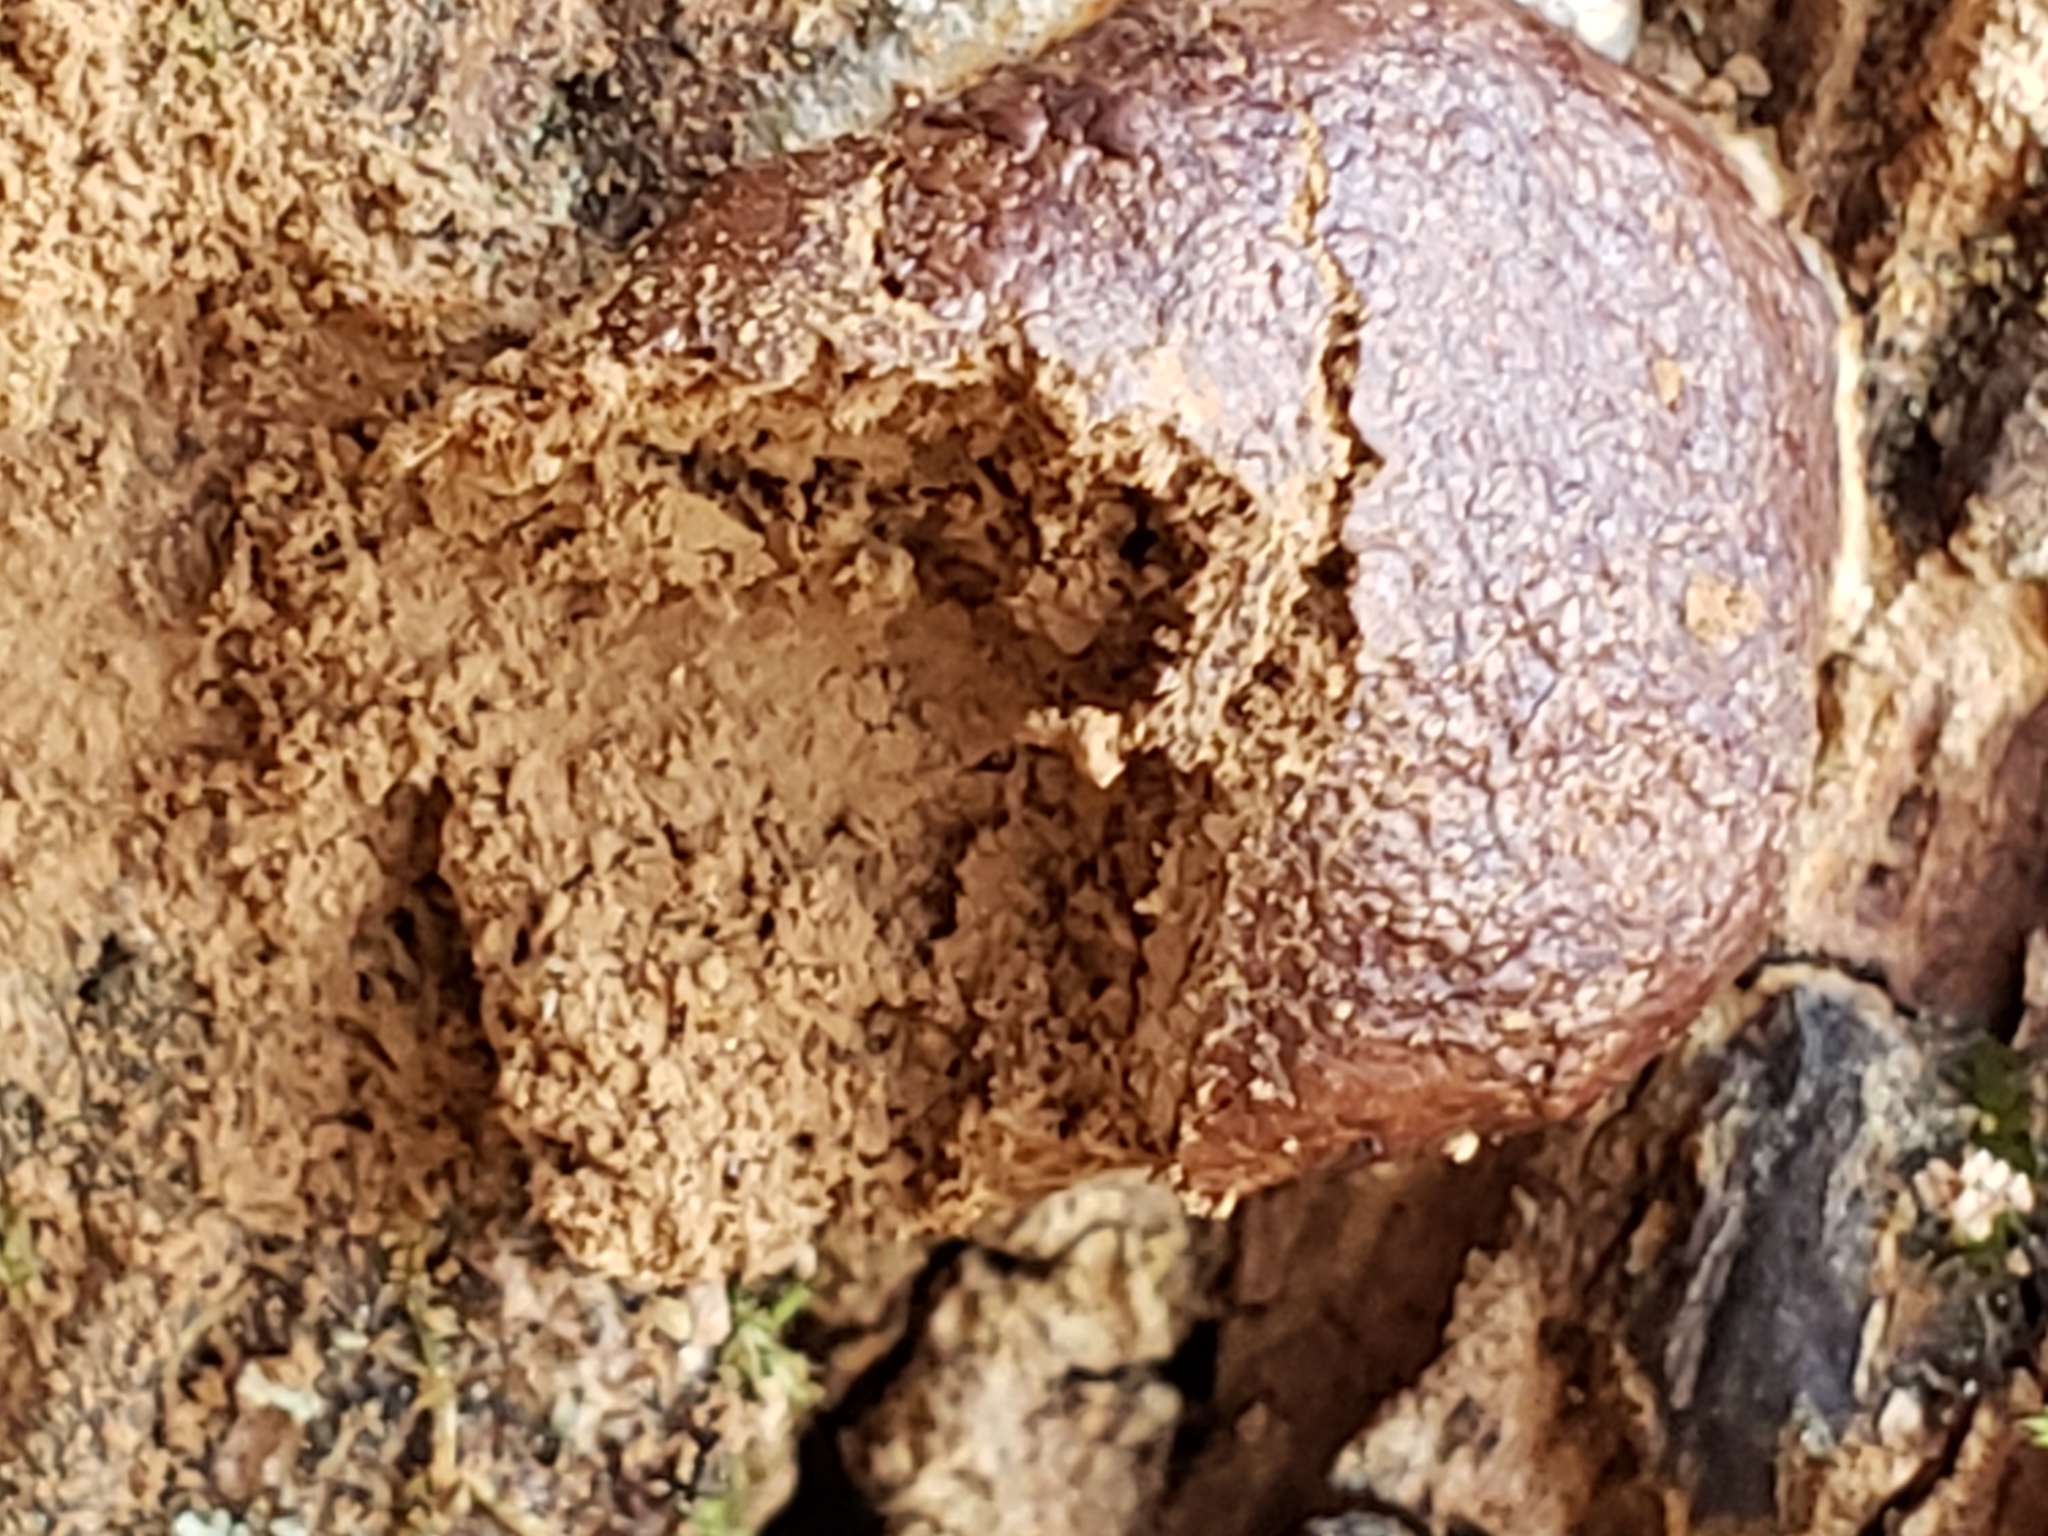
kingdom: Protozoa
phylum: Mycetozoa
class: Myxomycetes
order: Cribrariales
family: Tubiferaceae
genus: Reticularia
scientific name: Reticularia splendens
